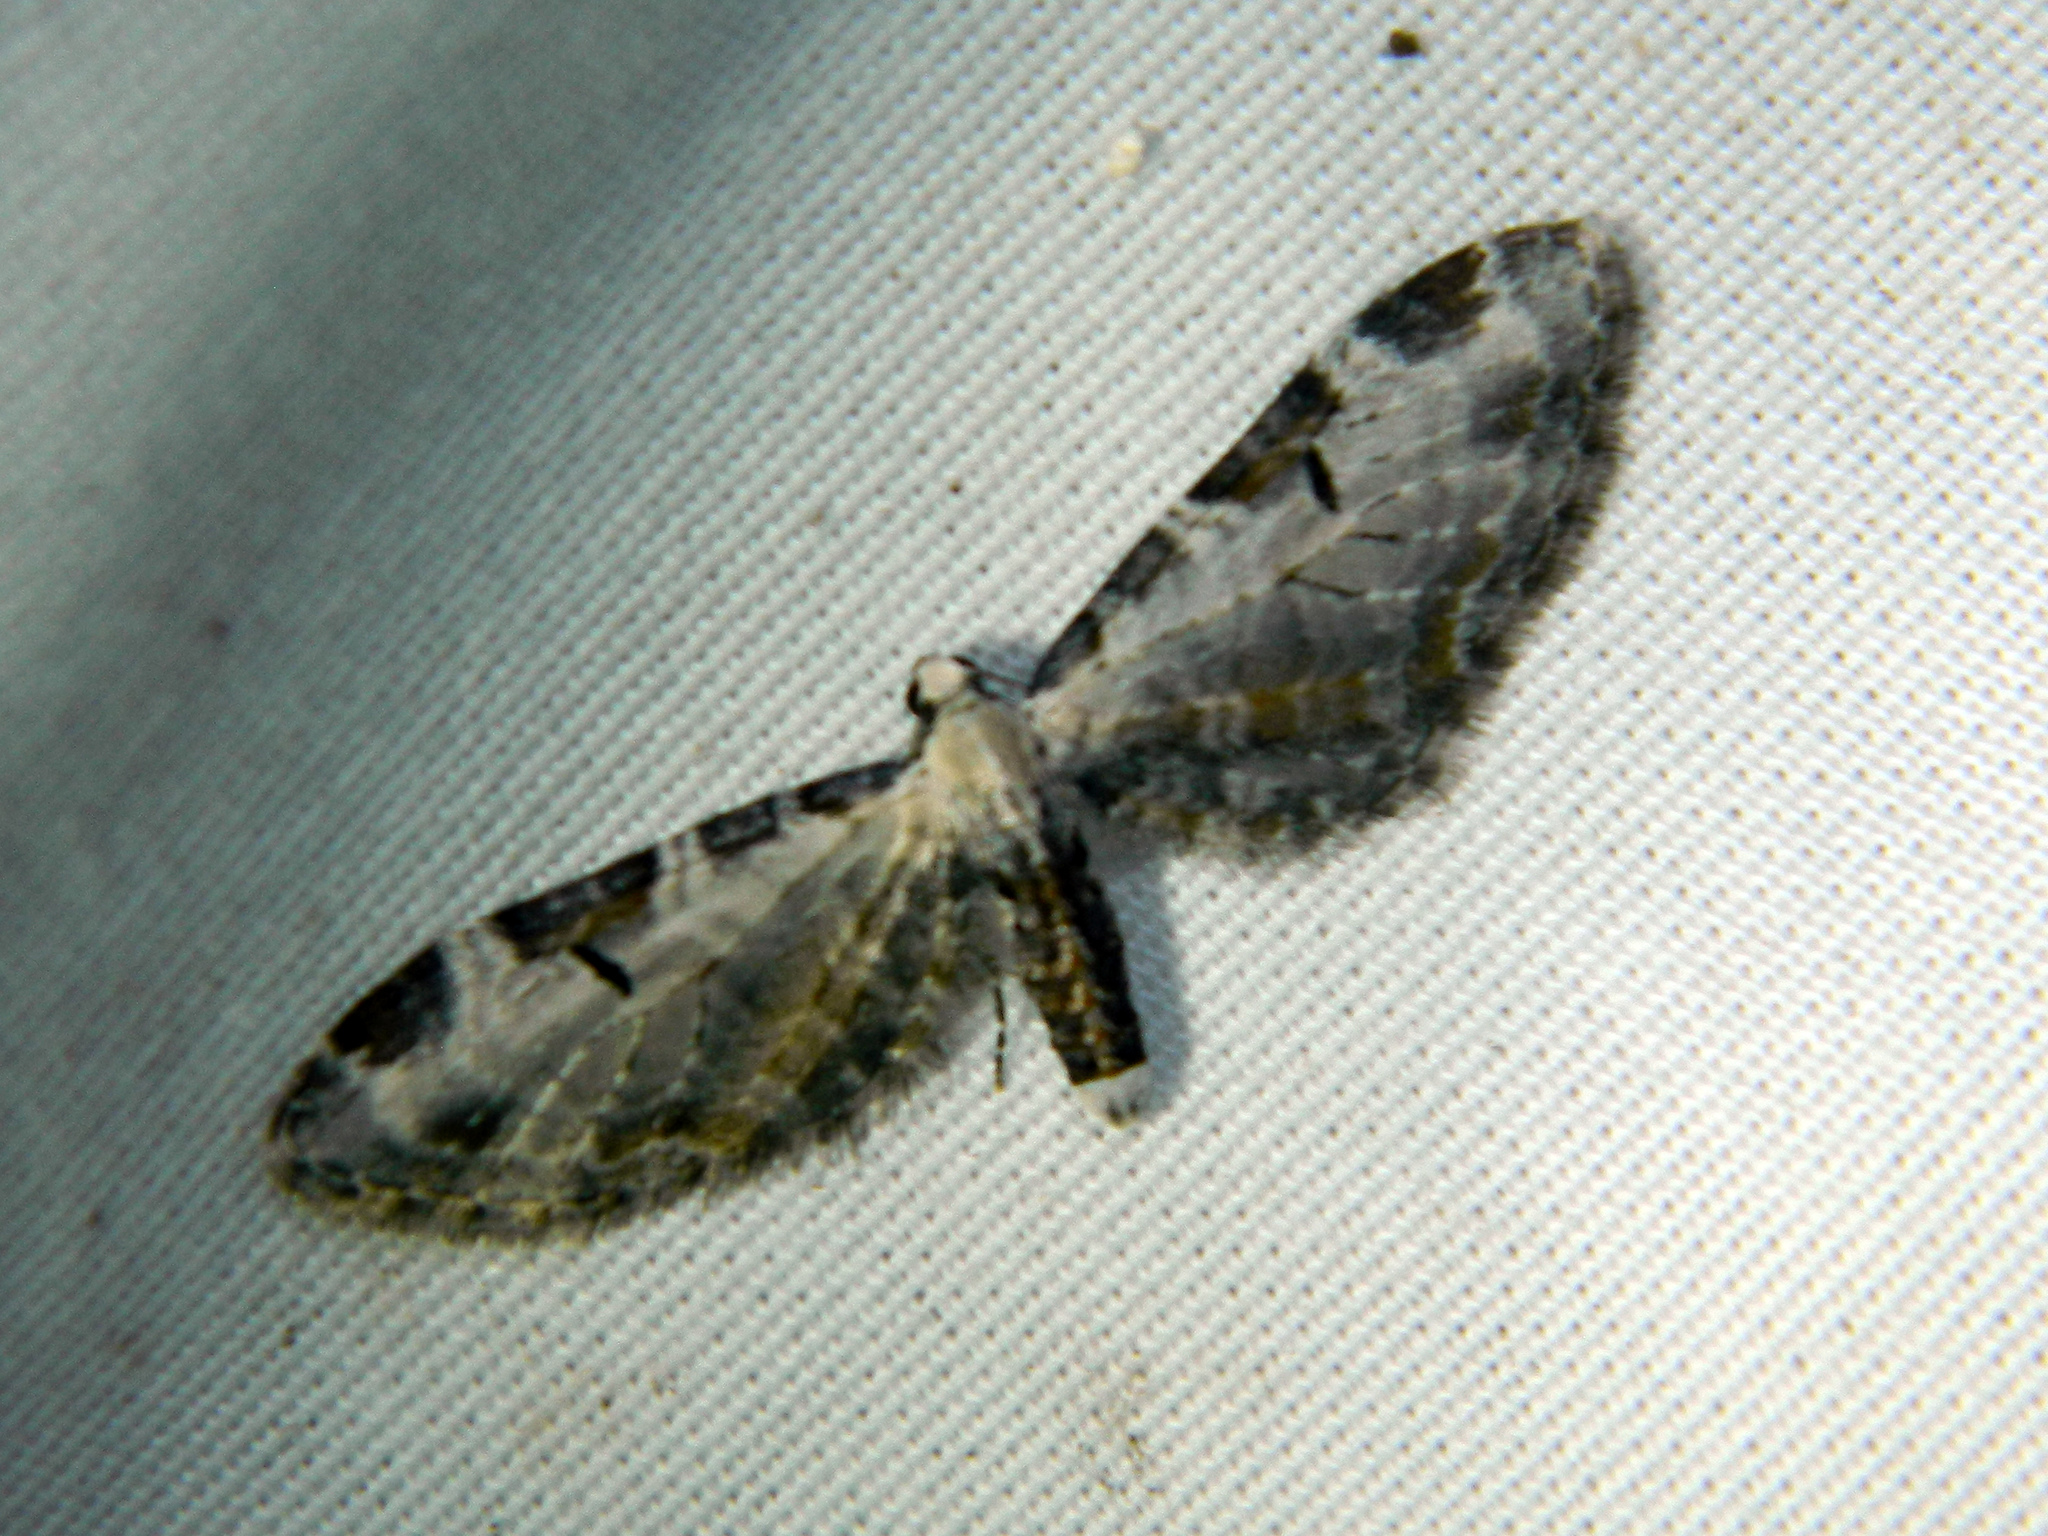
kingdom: Animalia
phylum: Arthropoda
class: Insecta
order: Lepidoptera
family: Geometridae
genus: Eupithecia
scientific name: Eupithecia ravocostaliata
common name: Great varigated pug
